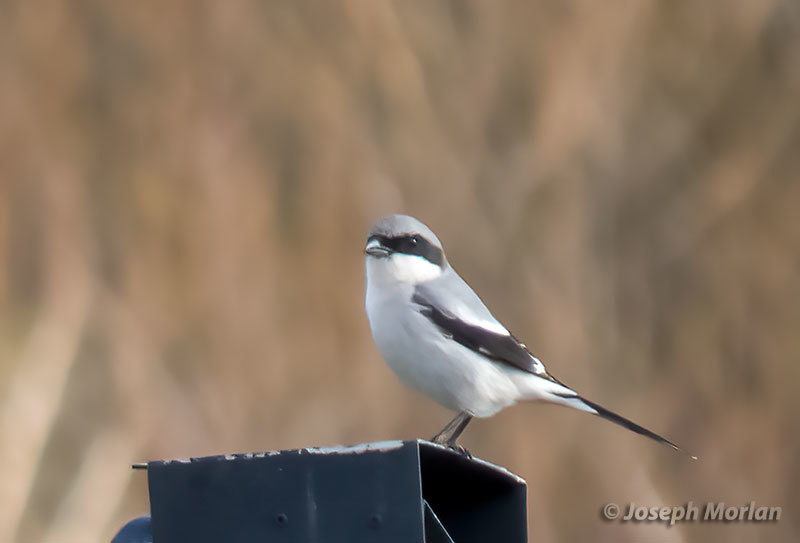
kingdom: Animalia
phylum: Chordata
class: Aves
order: Passeriformes
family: Laniidae
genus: Lanius
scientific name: Lanius ludovicianus
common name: Loggerhead shrike
